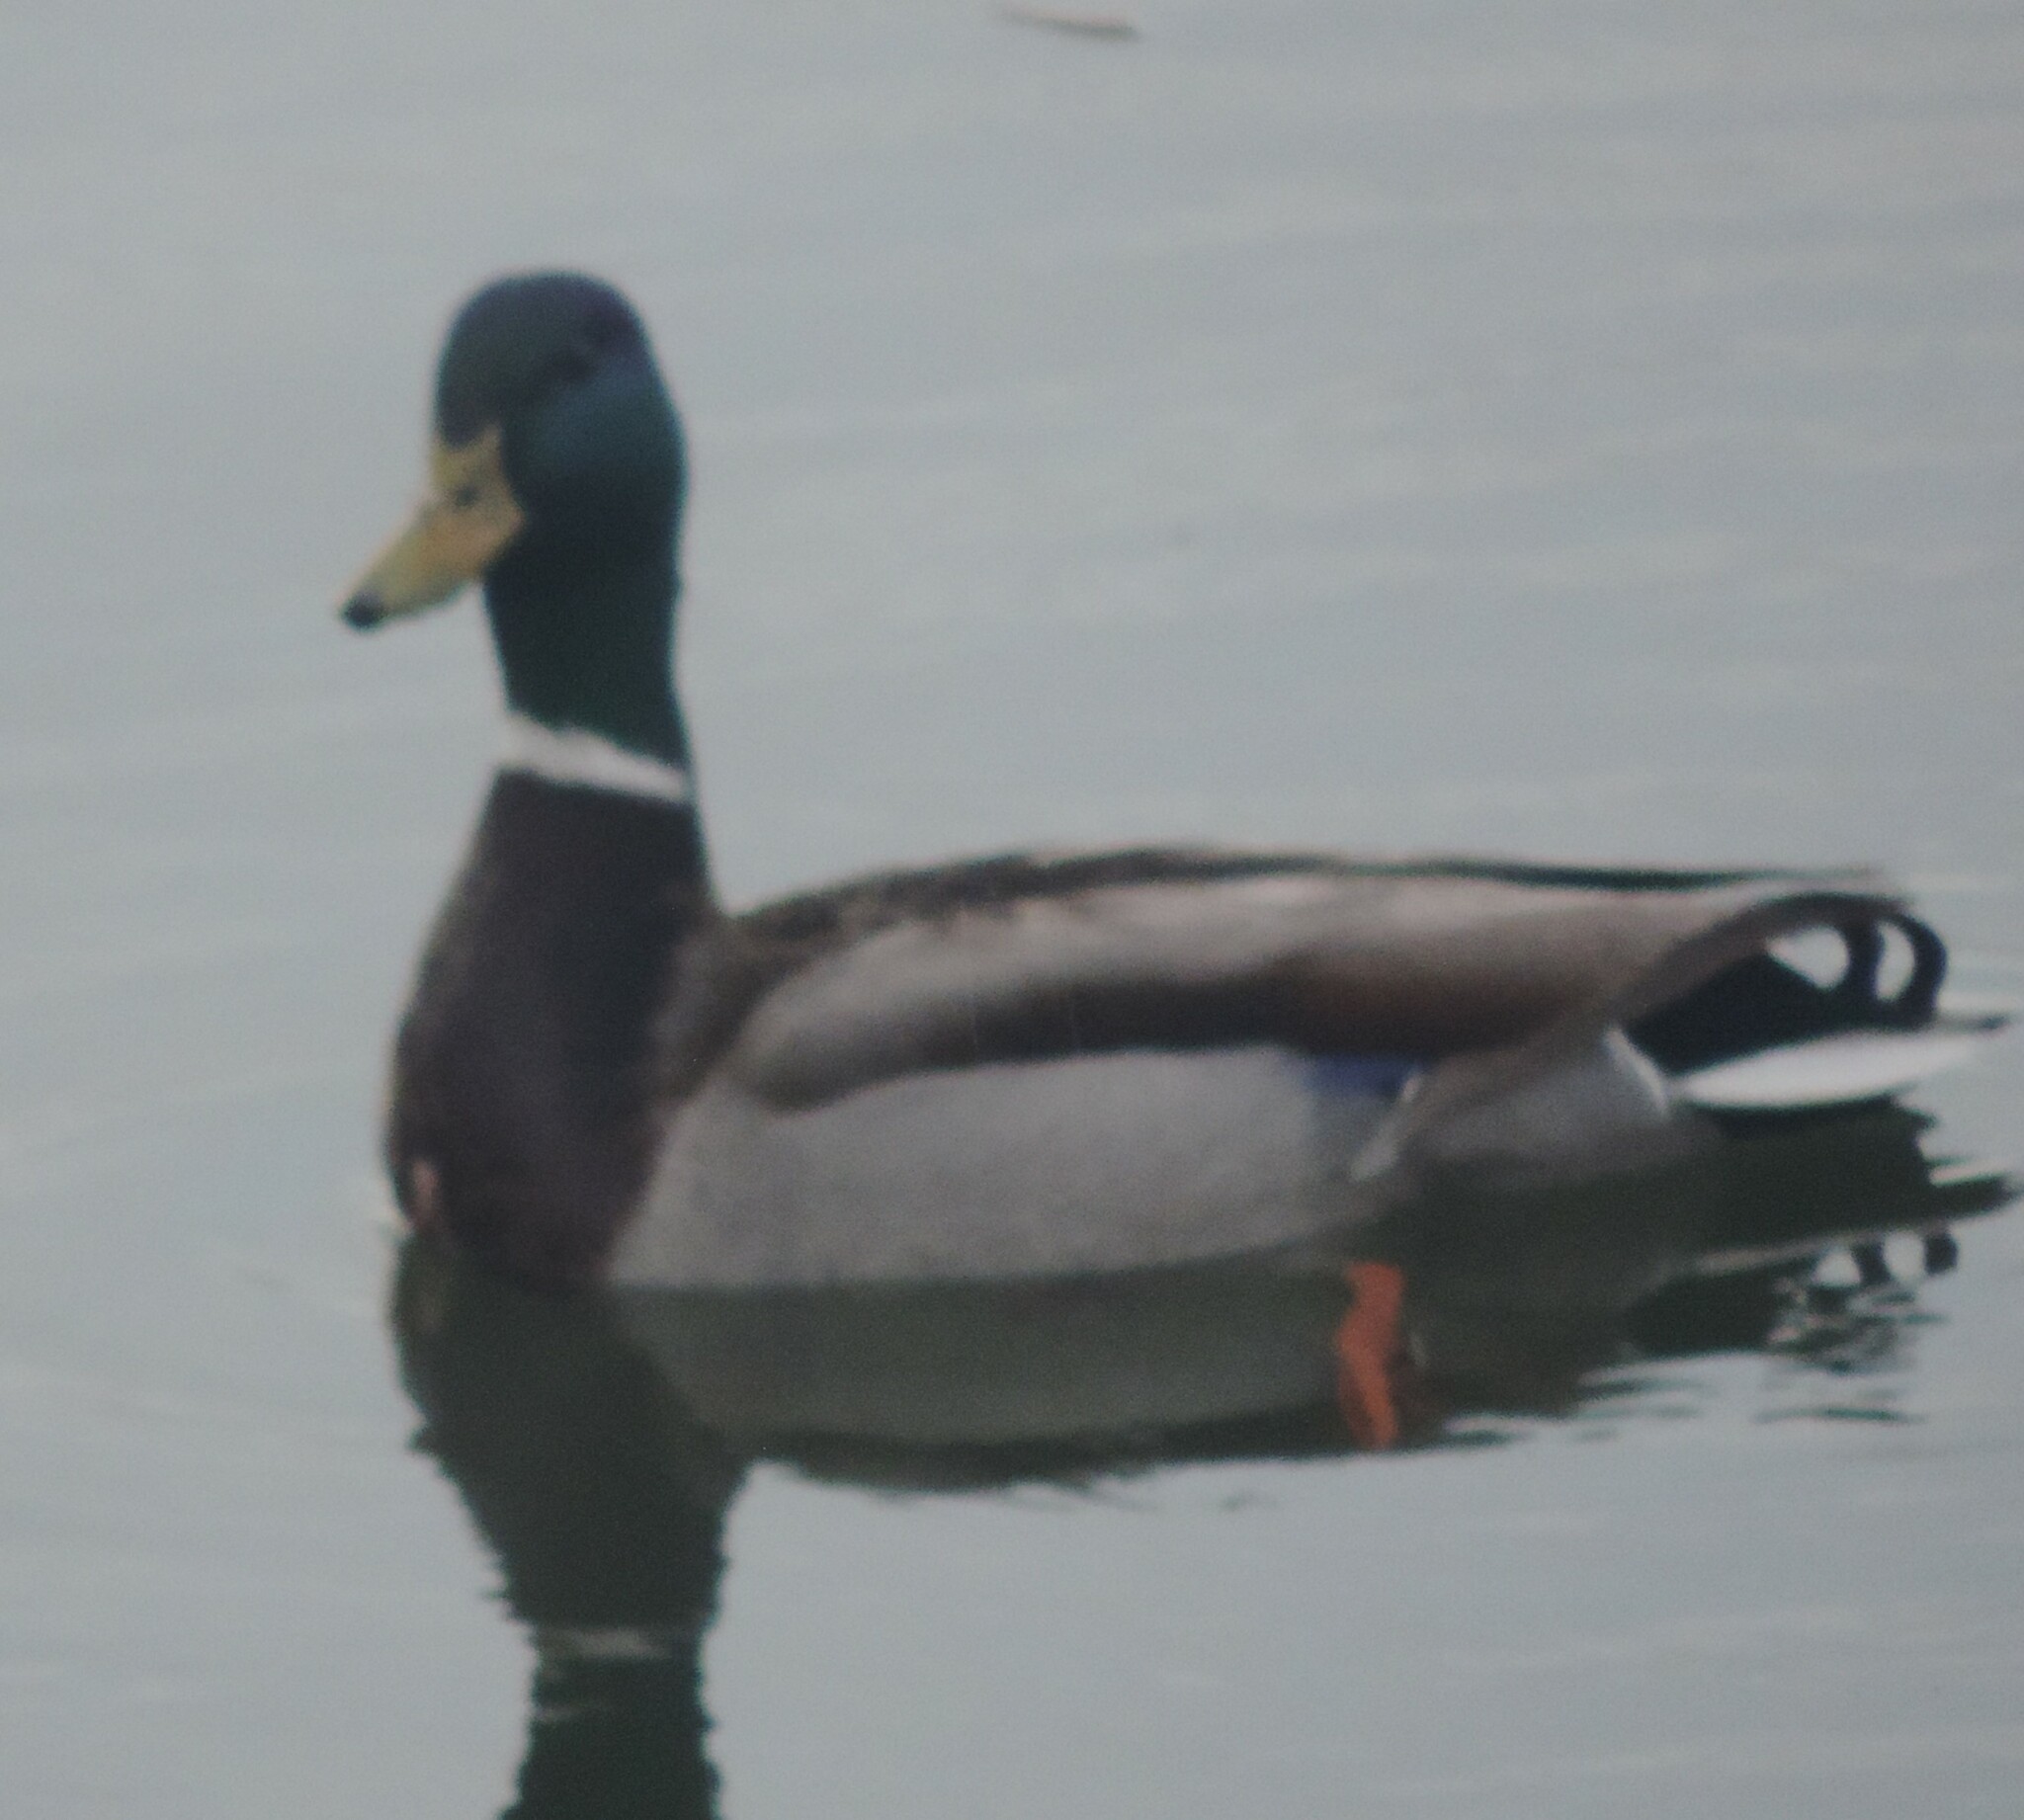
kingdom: Animalia
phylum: Chordata
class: Aves
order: Anseriformes
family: Anatidae
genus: Anas
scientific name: Anas platyrhynchos
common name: Mallard
